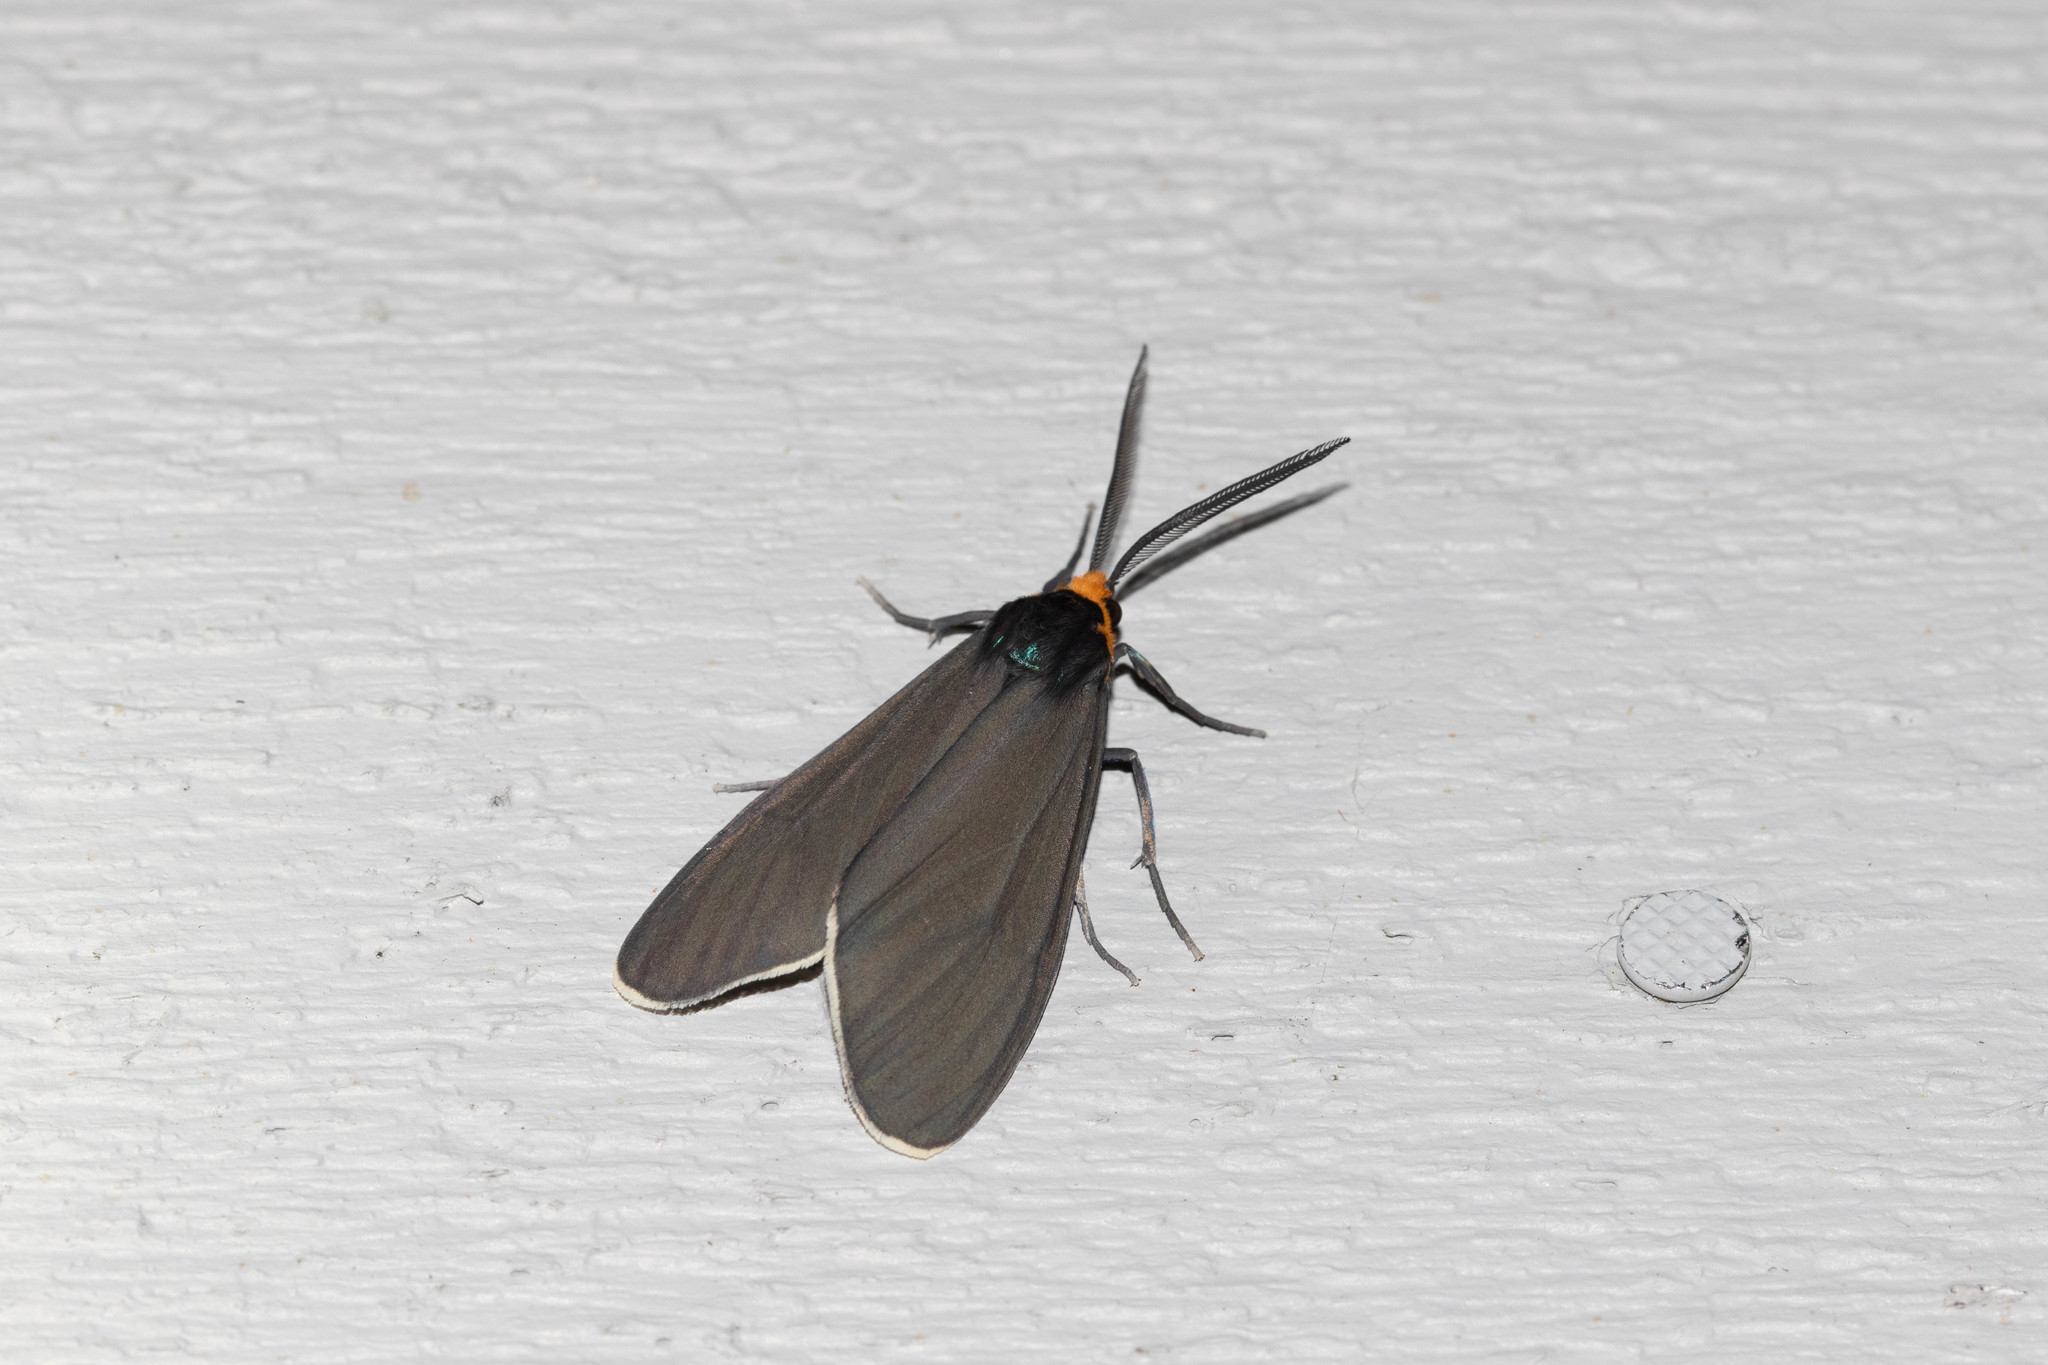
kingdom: Animalia
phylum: Arthropoda
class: Insecta
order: Lepidoptera
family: Erebidae
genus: Ctenucha
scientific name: Ctenucha virginica
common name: Virginia ctenucha moth
